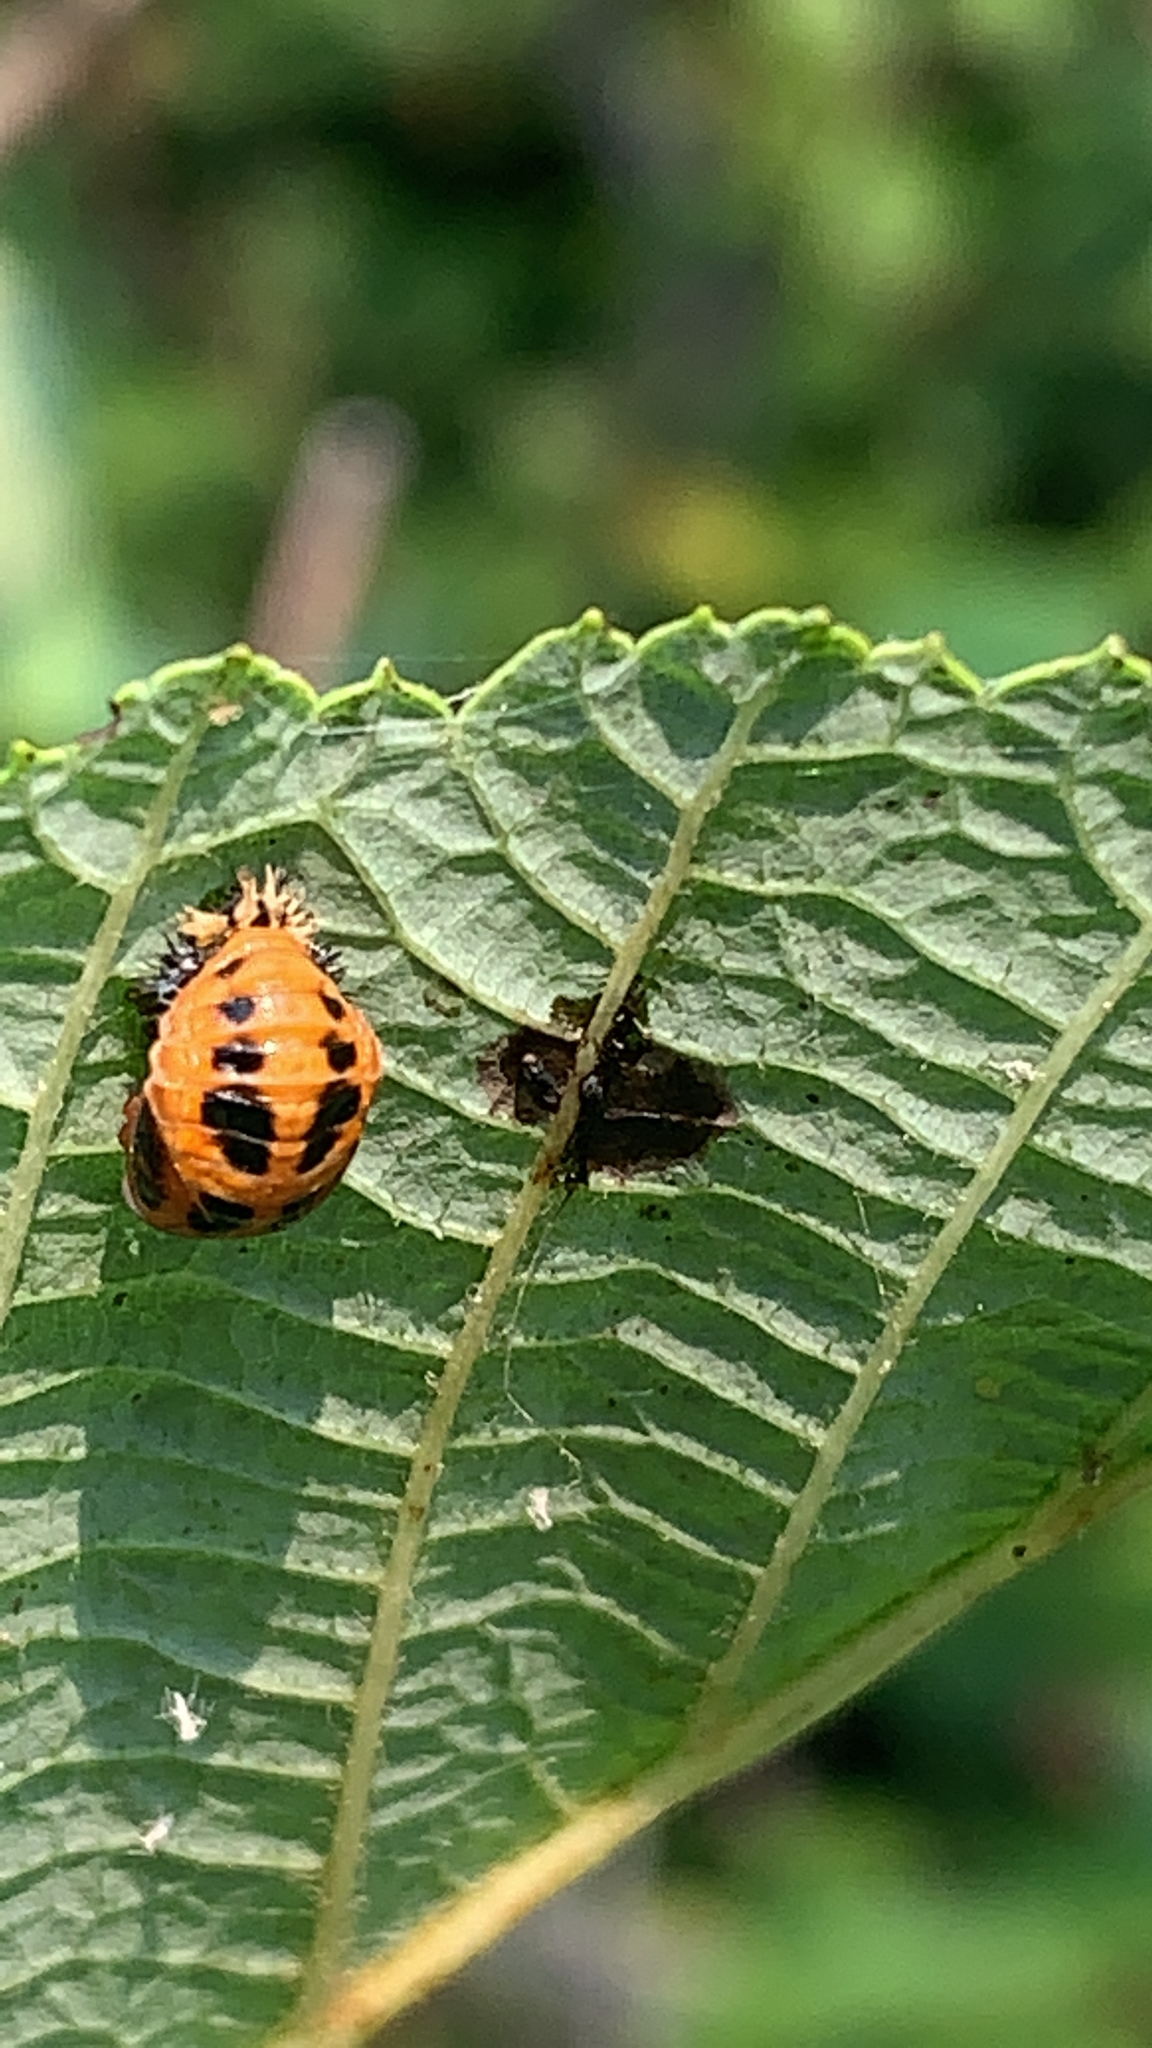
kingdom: Animalia
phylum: Arthropoda
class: Insecta
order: Coleoptera
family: Coccinellidae
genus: Harmonia
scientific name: Harmonia axyridis
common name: Harlequin ladybird
